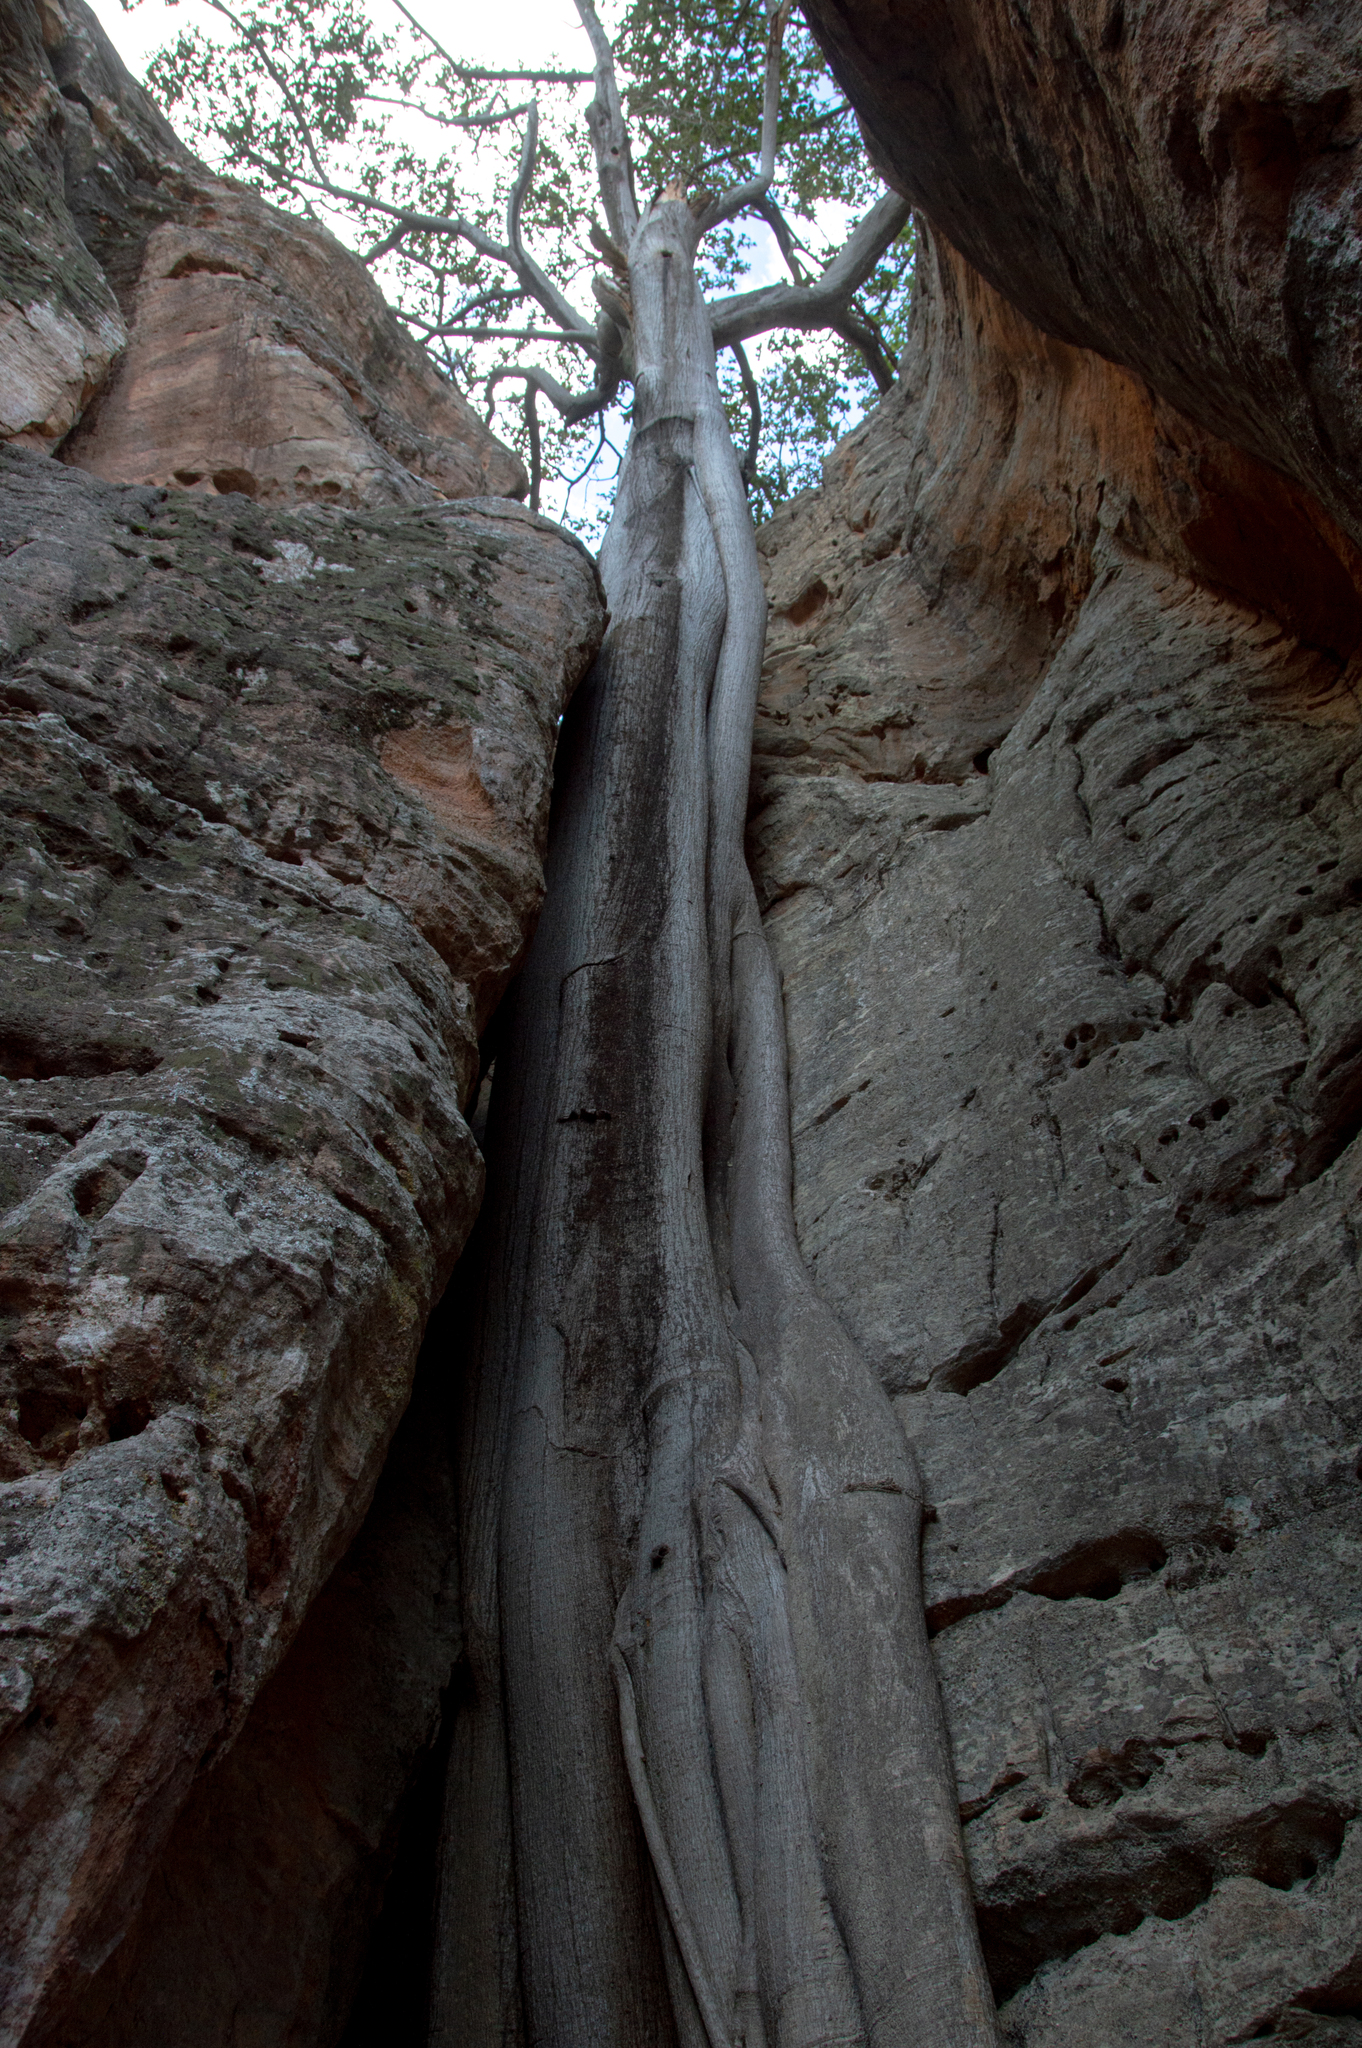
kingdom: Plantae
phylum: Tracheophyta
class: Magnoliopsida
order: Rosales
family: Moraceae
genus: Ficus
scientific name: Ficus gomelleira
